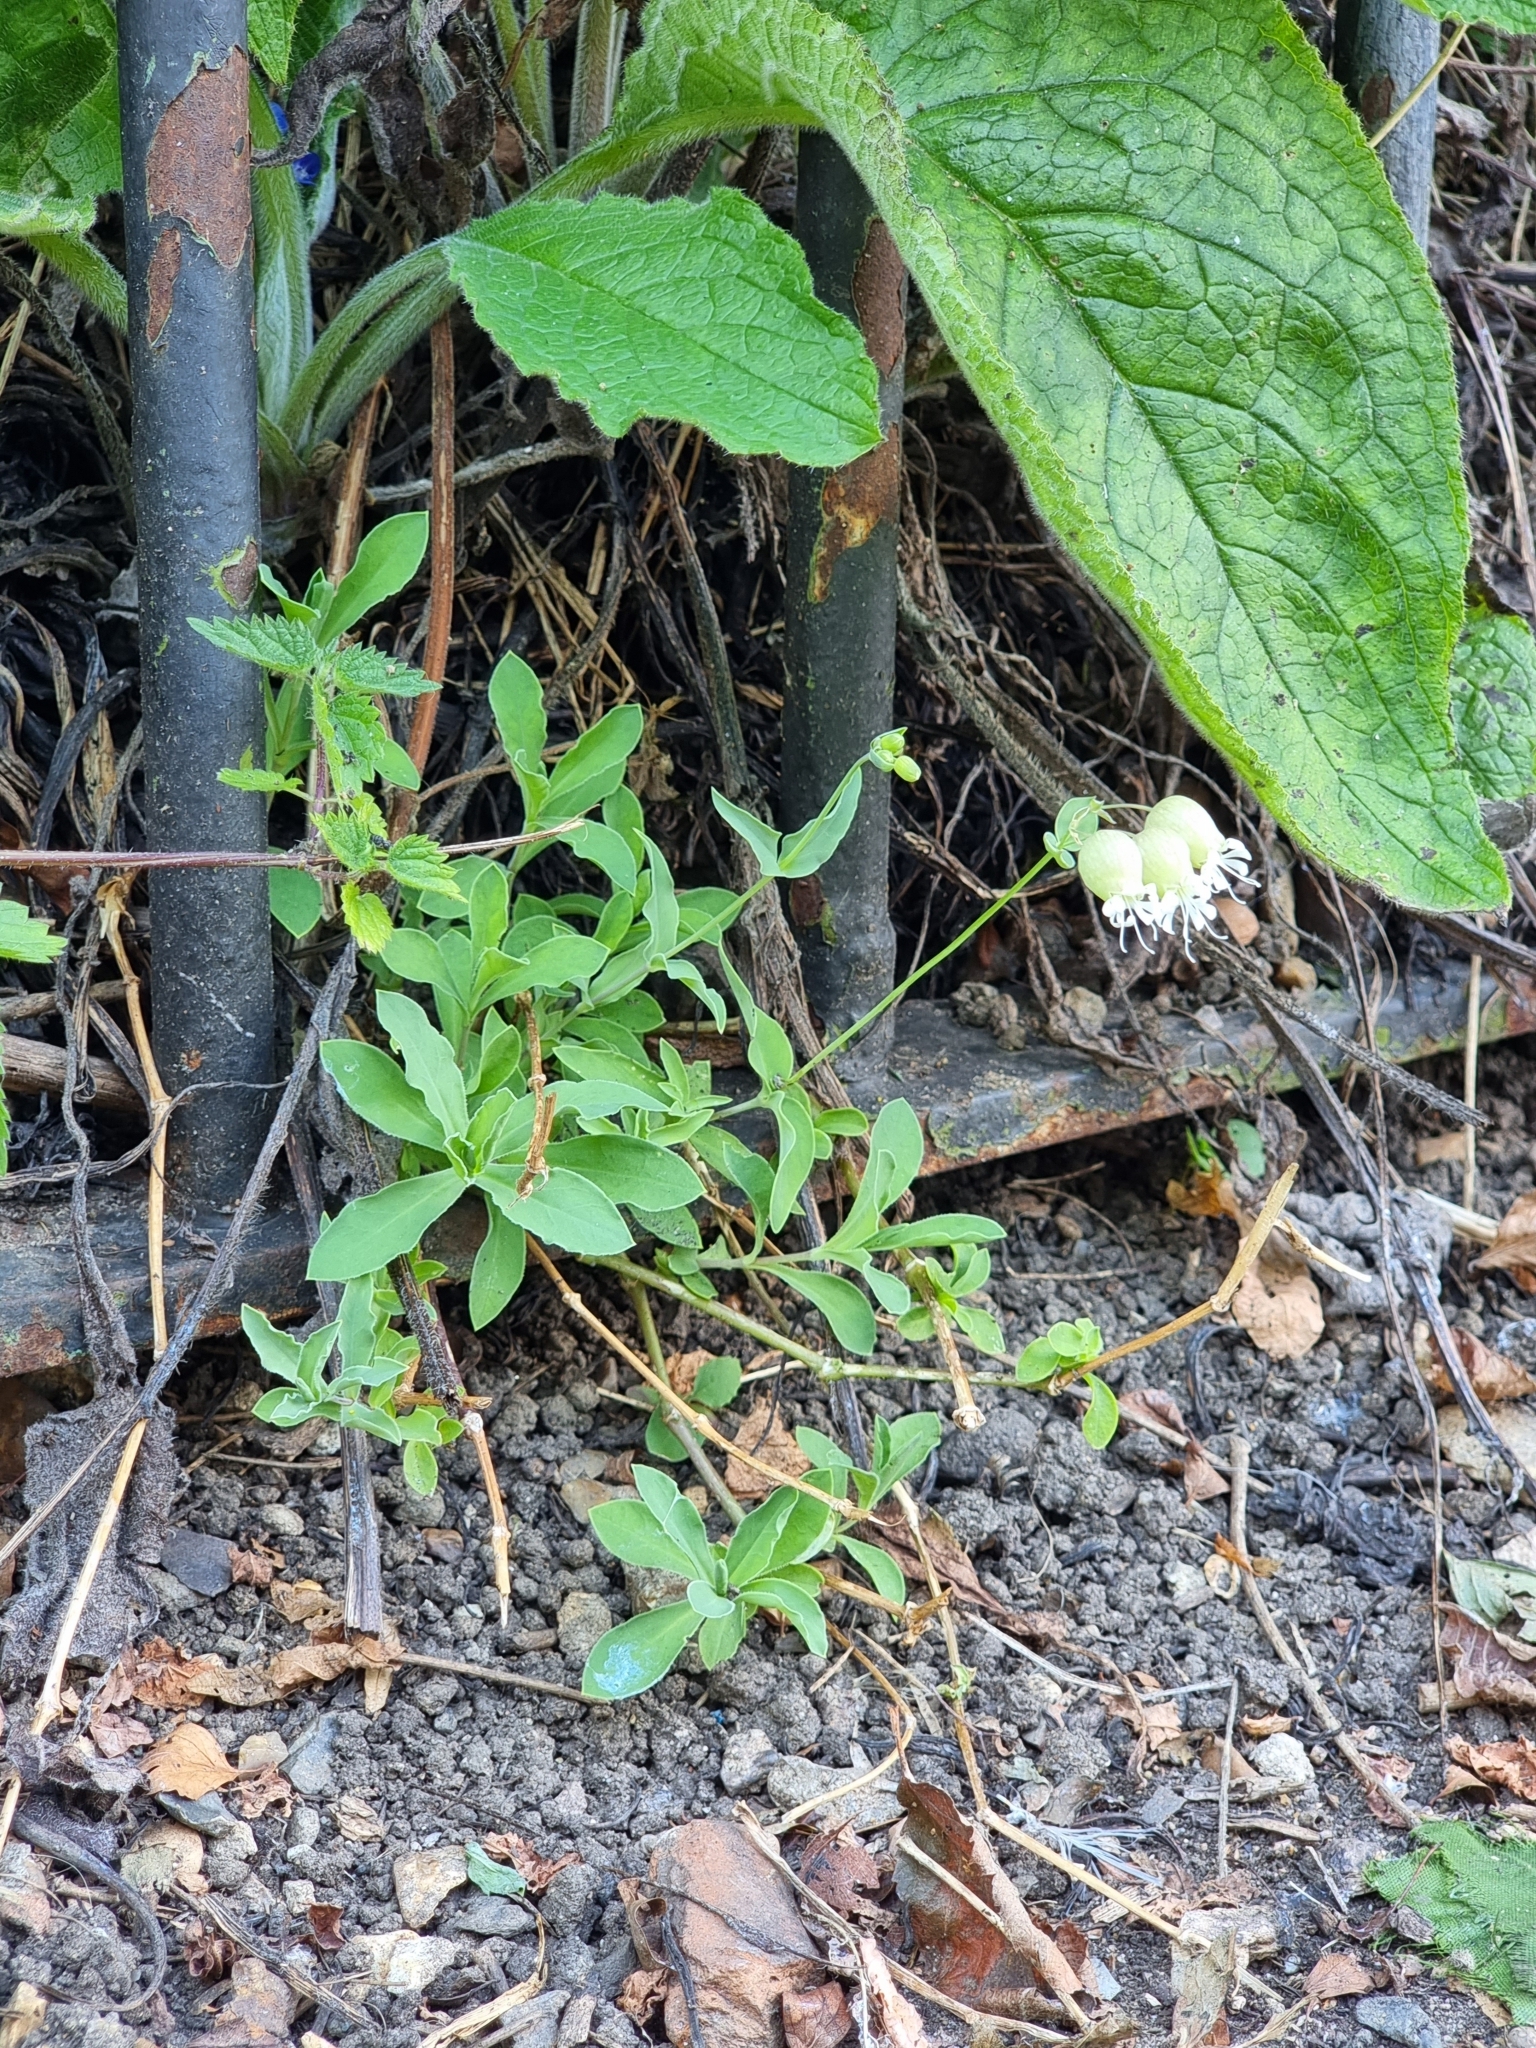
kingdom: Plantae
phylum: Tracheophyta
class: Magnoliopsida
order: Caryophyllales
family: Caryophyllaceae
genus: Silene
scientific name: Silene vulgaris
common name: Bladder campion
